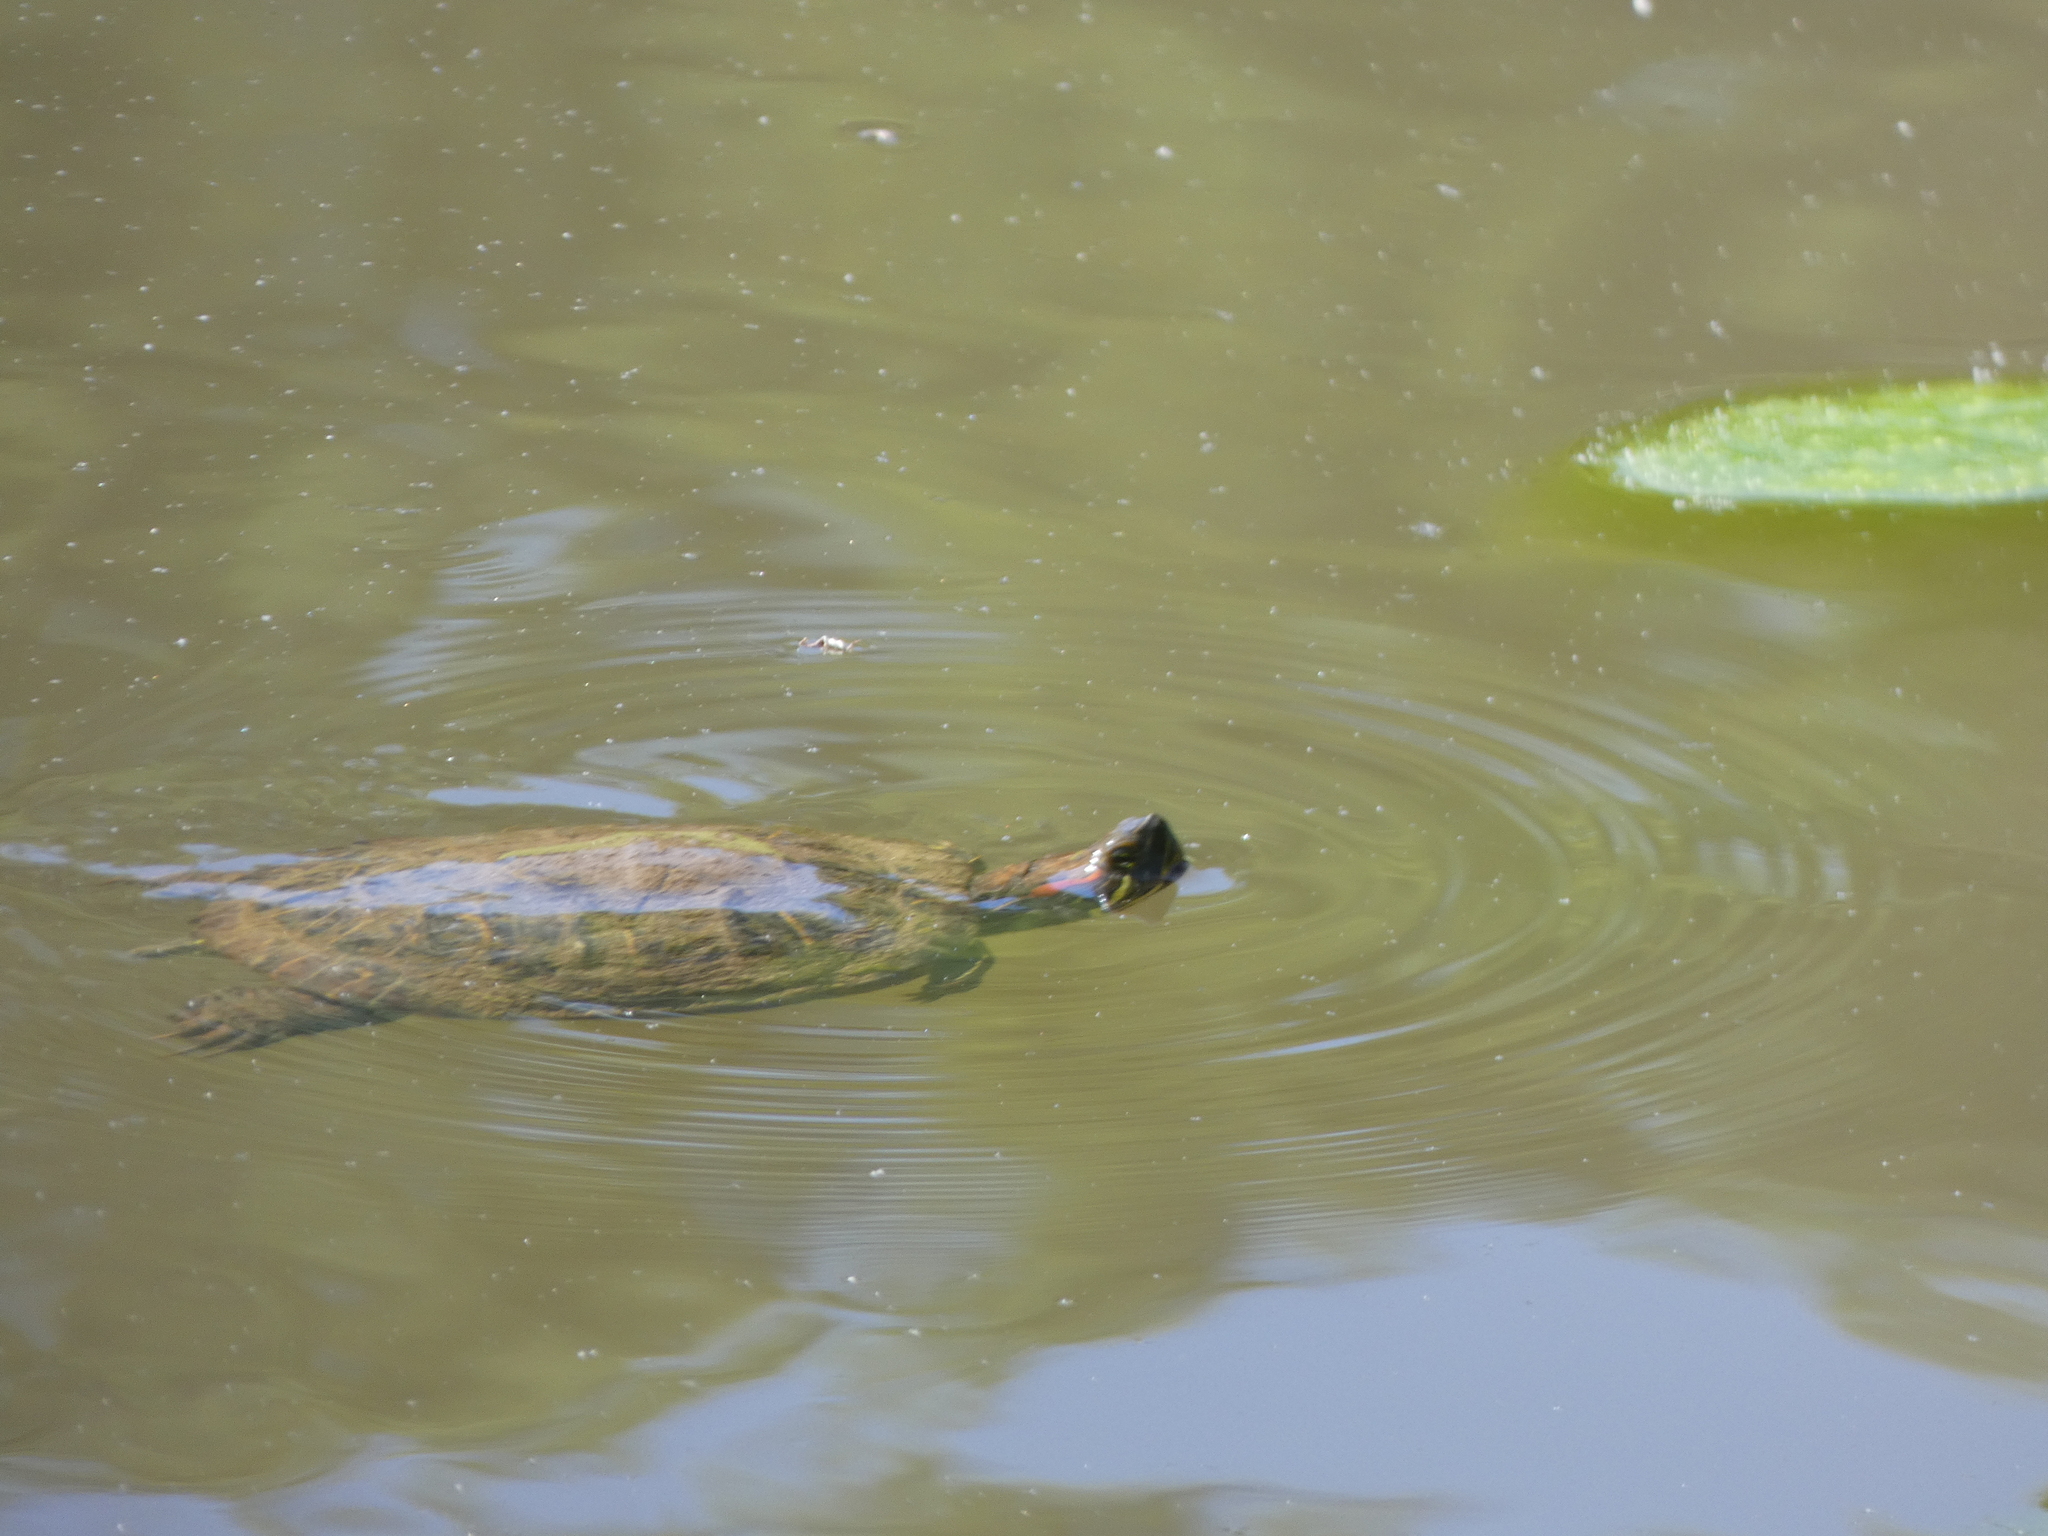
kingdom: Animalia
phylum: Chordata
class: Testudines
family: Emydidae
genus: Trachemys
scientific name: Trachemys scripta
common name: Slider
